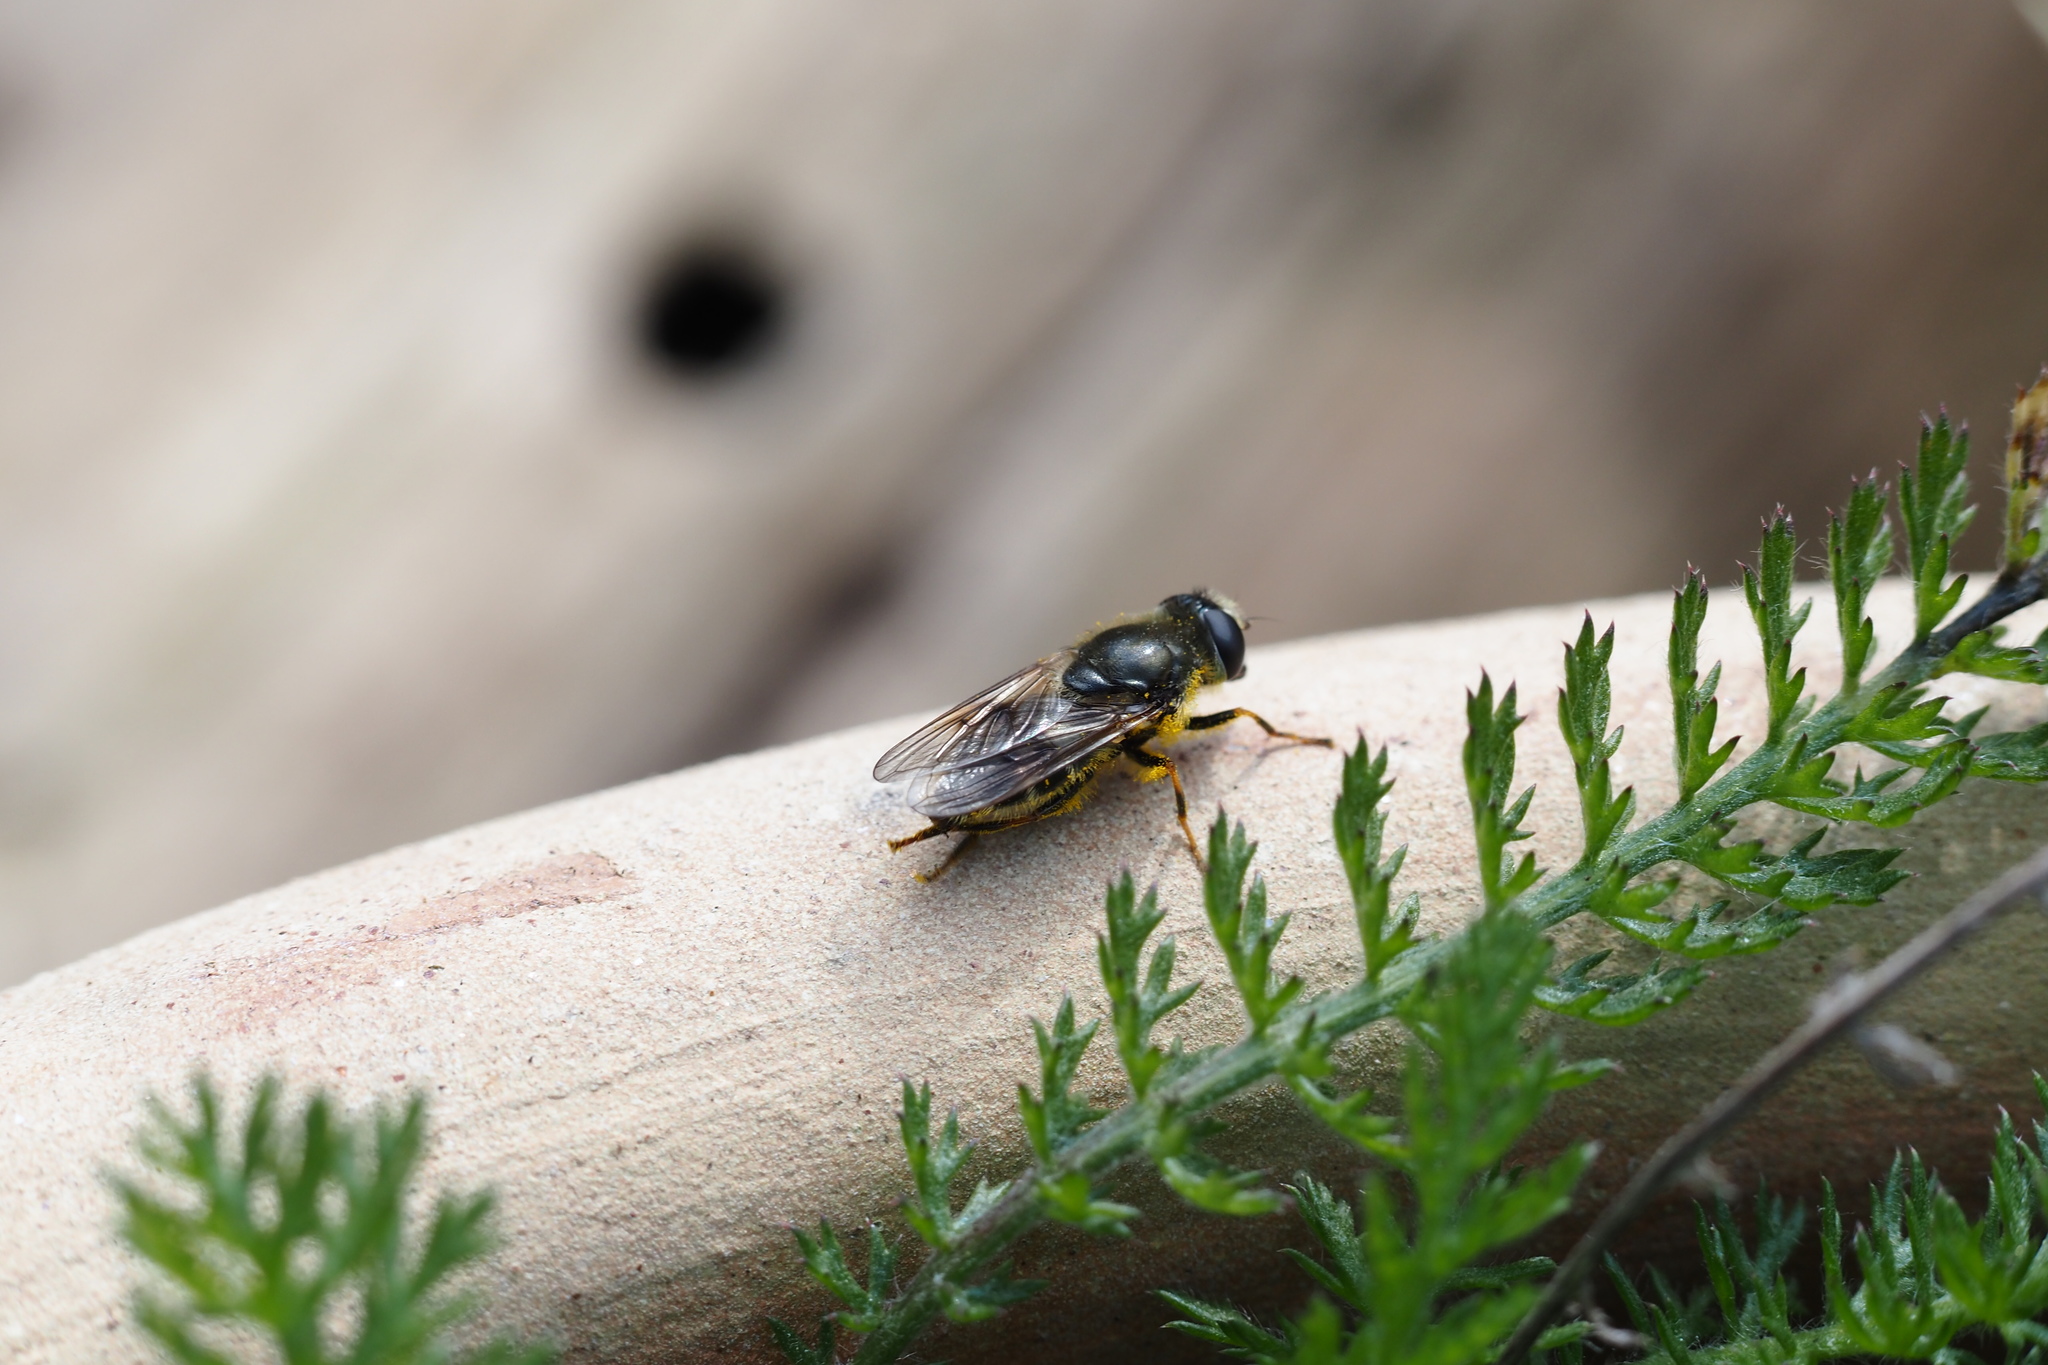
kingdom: Animalia
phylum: Arthropoda
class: Insecta
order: Diptera
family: Syrphidae
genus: Cheilosia
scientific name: Cheilosia caerulescens
